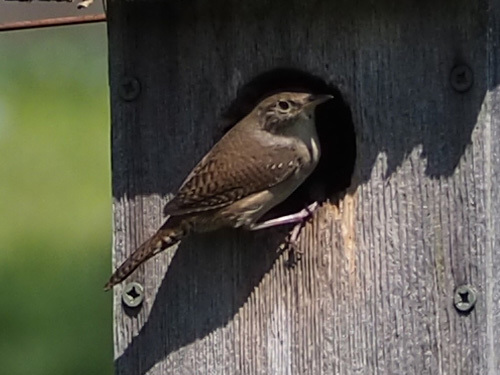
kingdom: Animalia
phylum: Chordata
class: Aves
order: Passeriformes
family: Troglodytidae
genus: Troglodytes
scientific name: Troglodytes aedon
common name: House wren
